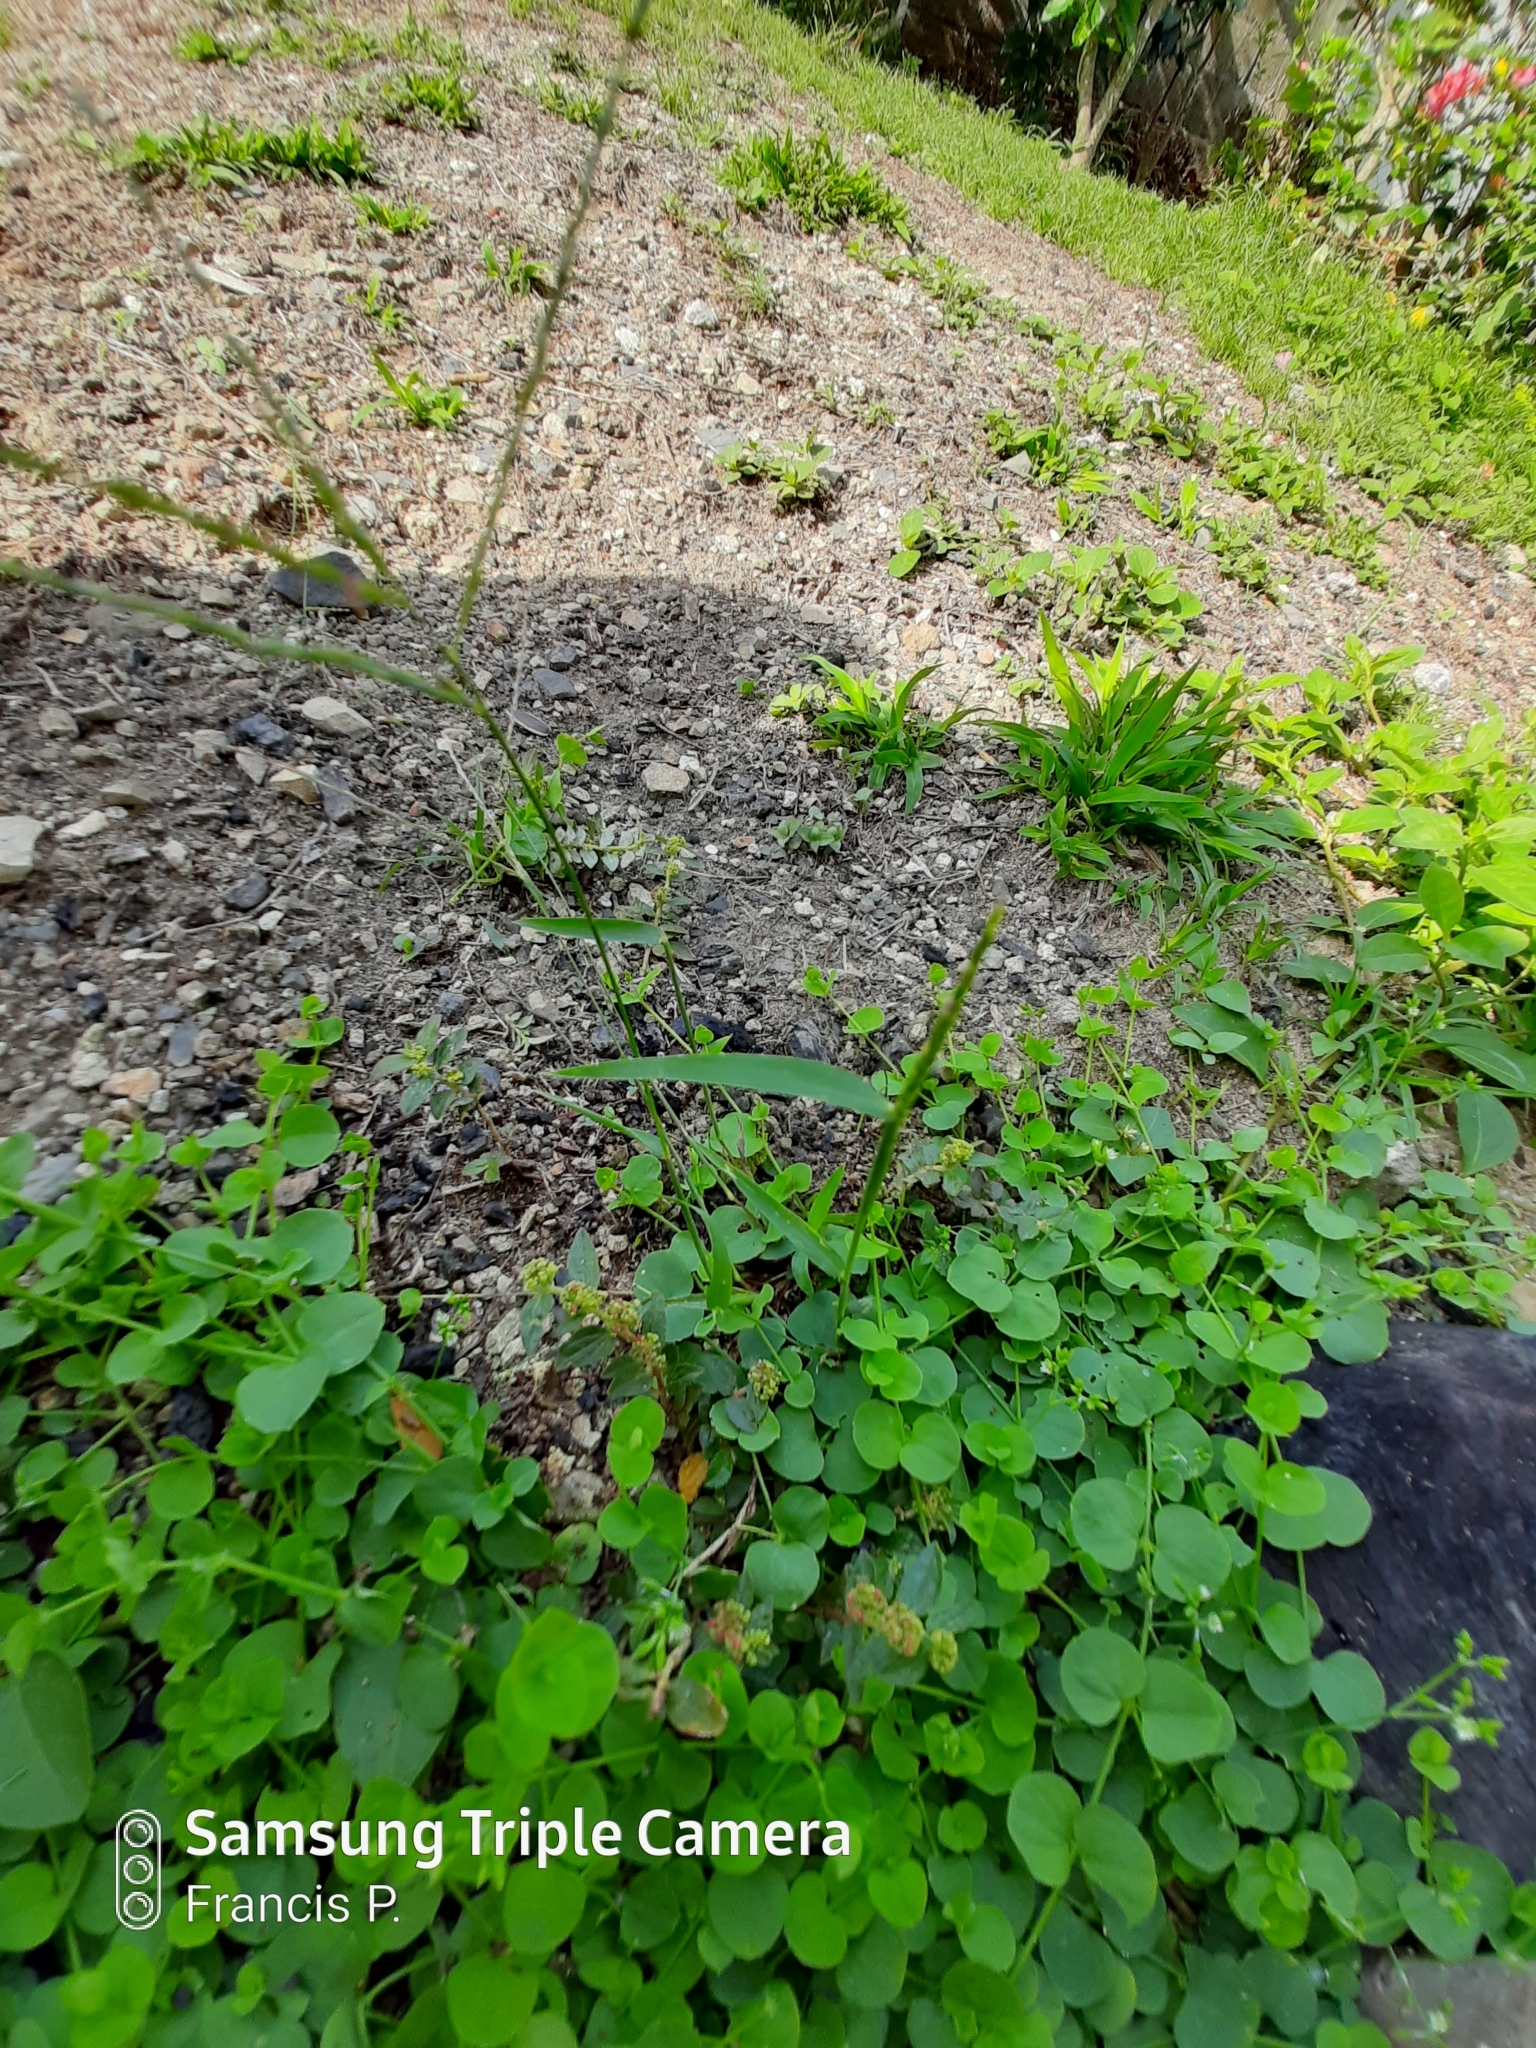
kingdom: Plantae
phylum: Tracheophyta
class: Liliopsida
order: Poales
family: Poaceae
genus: Digitaria
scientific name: Digitaria ischaemum
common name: Smooth crabgrass
